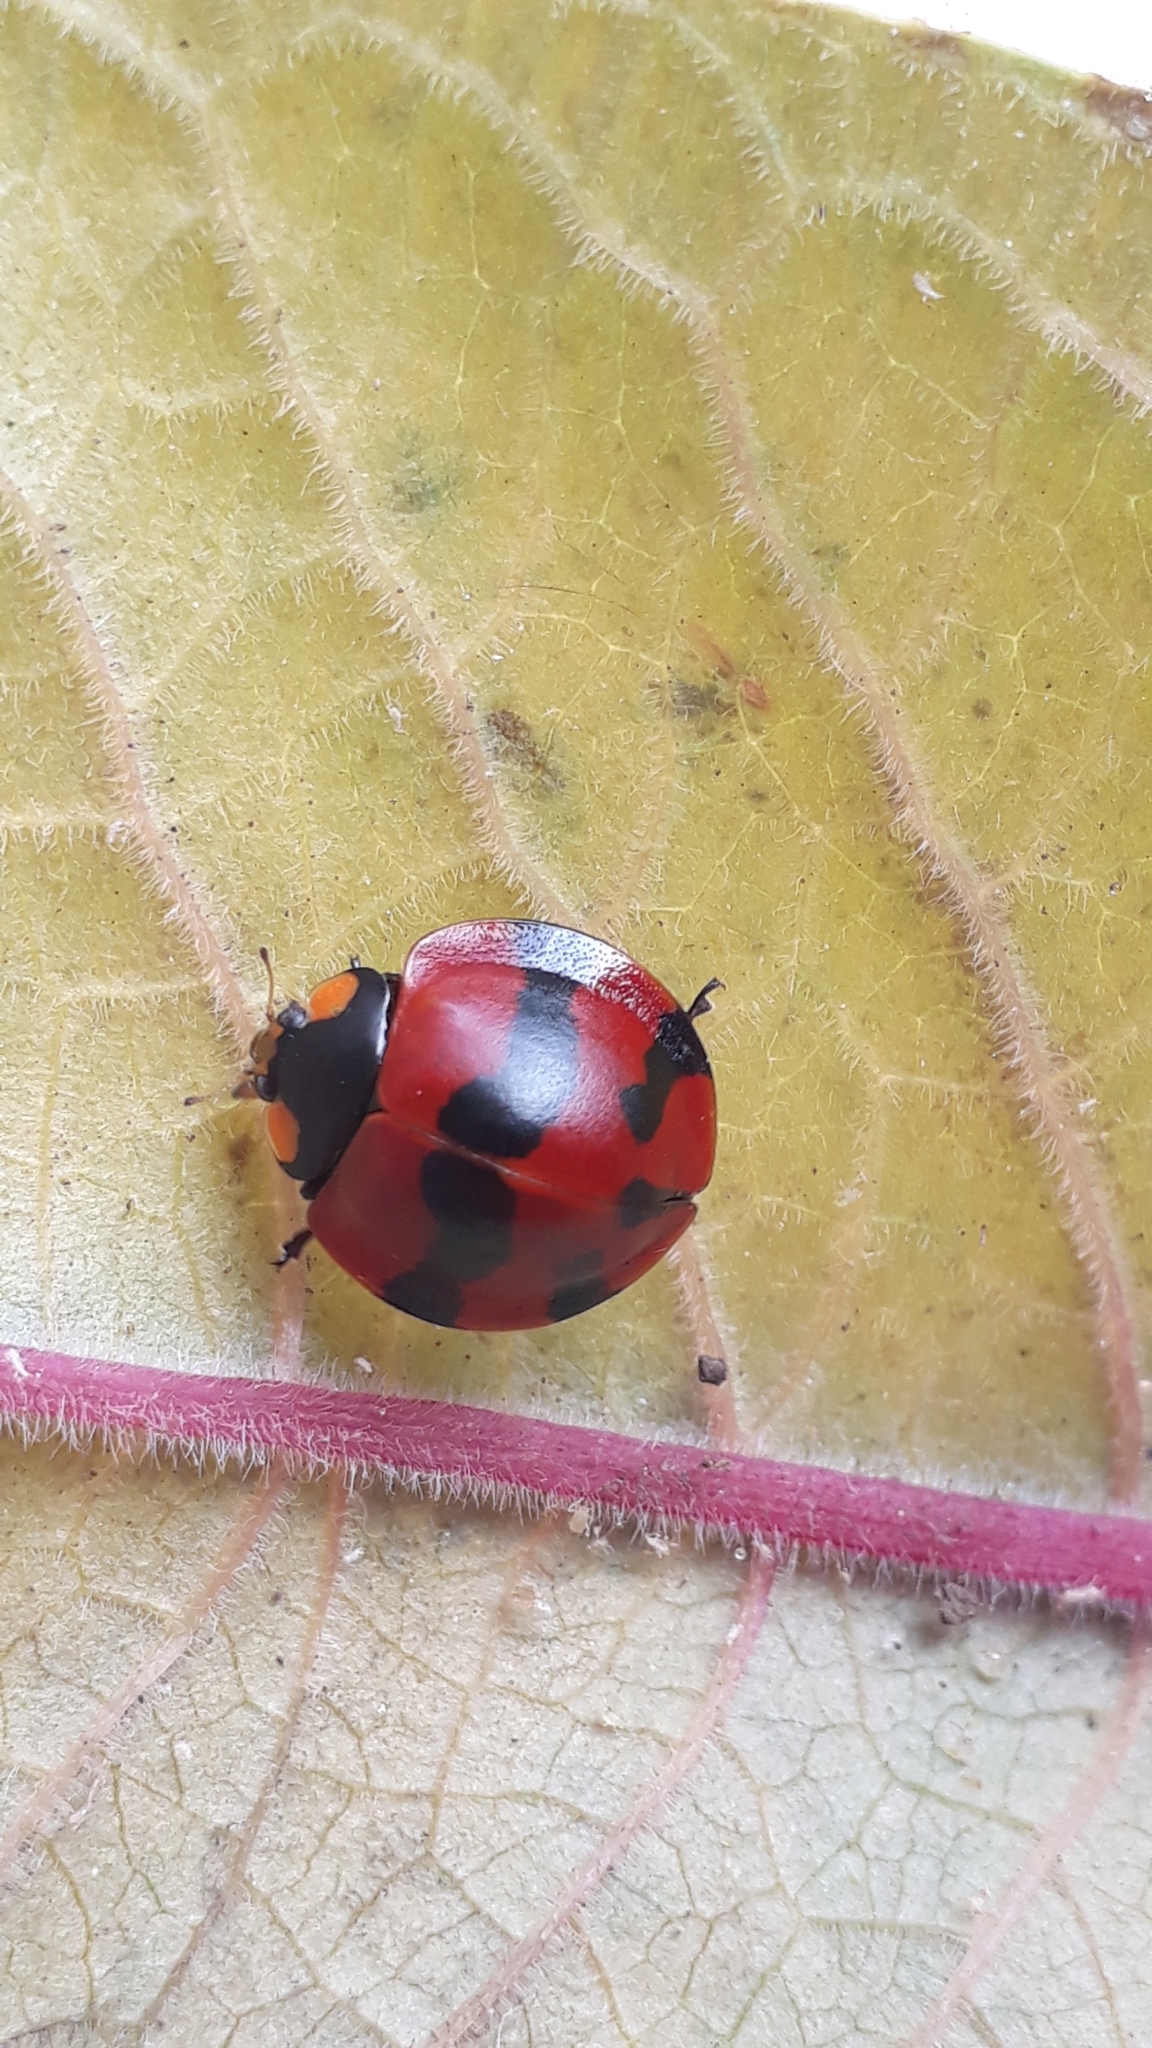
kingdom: Animalia
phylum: Arthropoda
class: Insecta
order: Coleoptera
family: Coccinellidae
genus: Neda
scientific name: Neda norrisi
